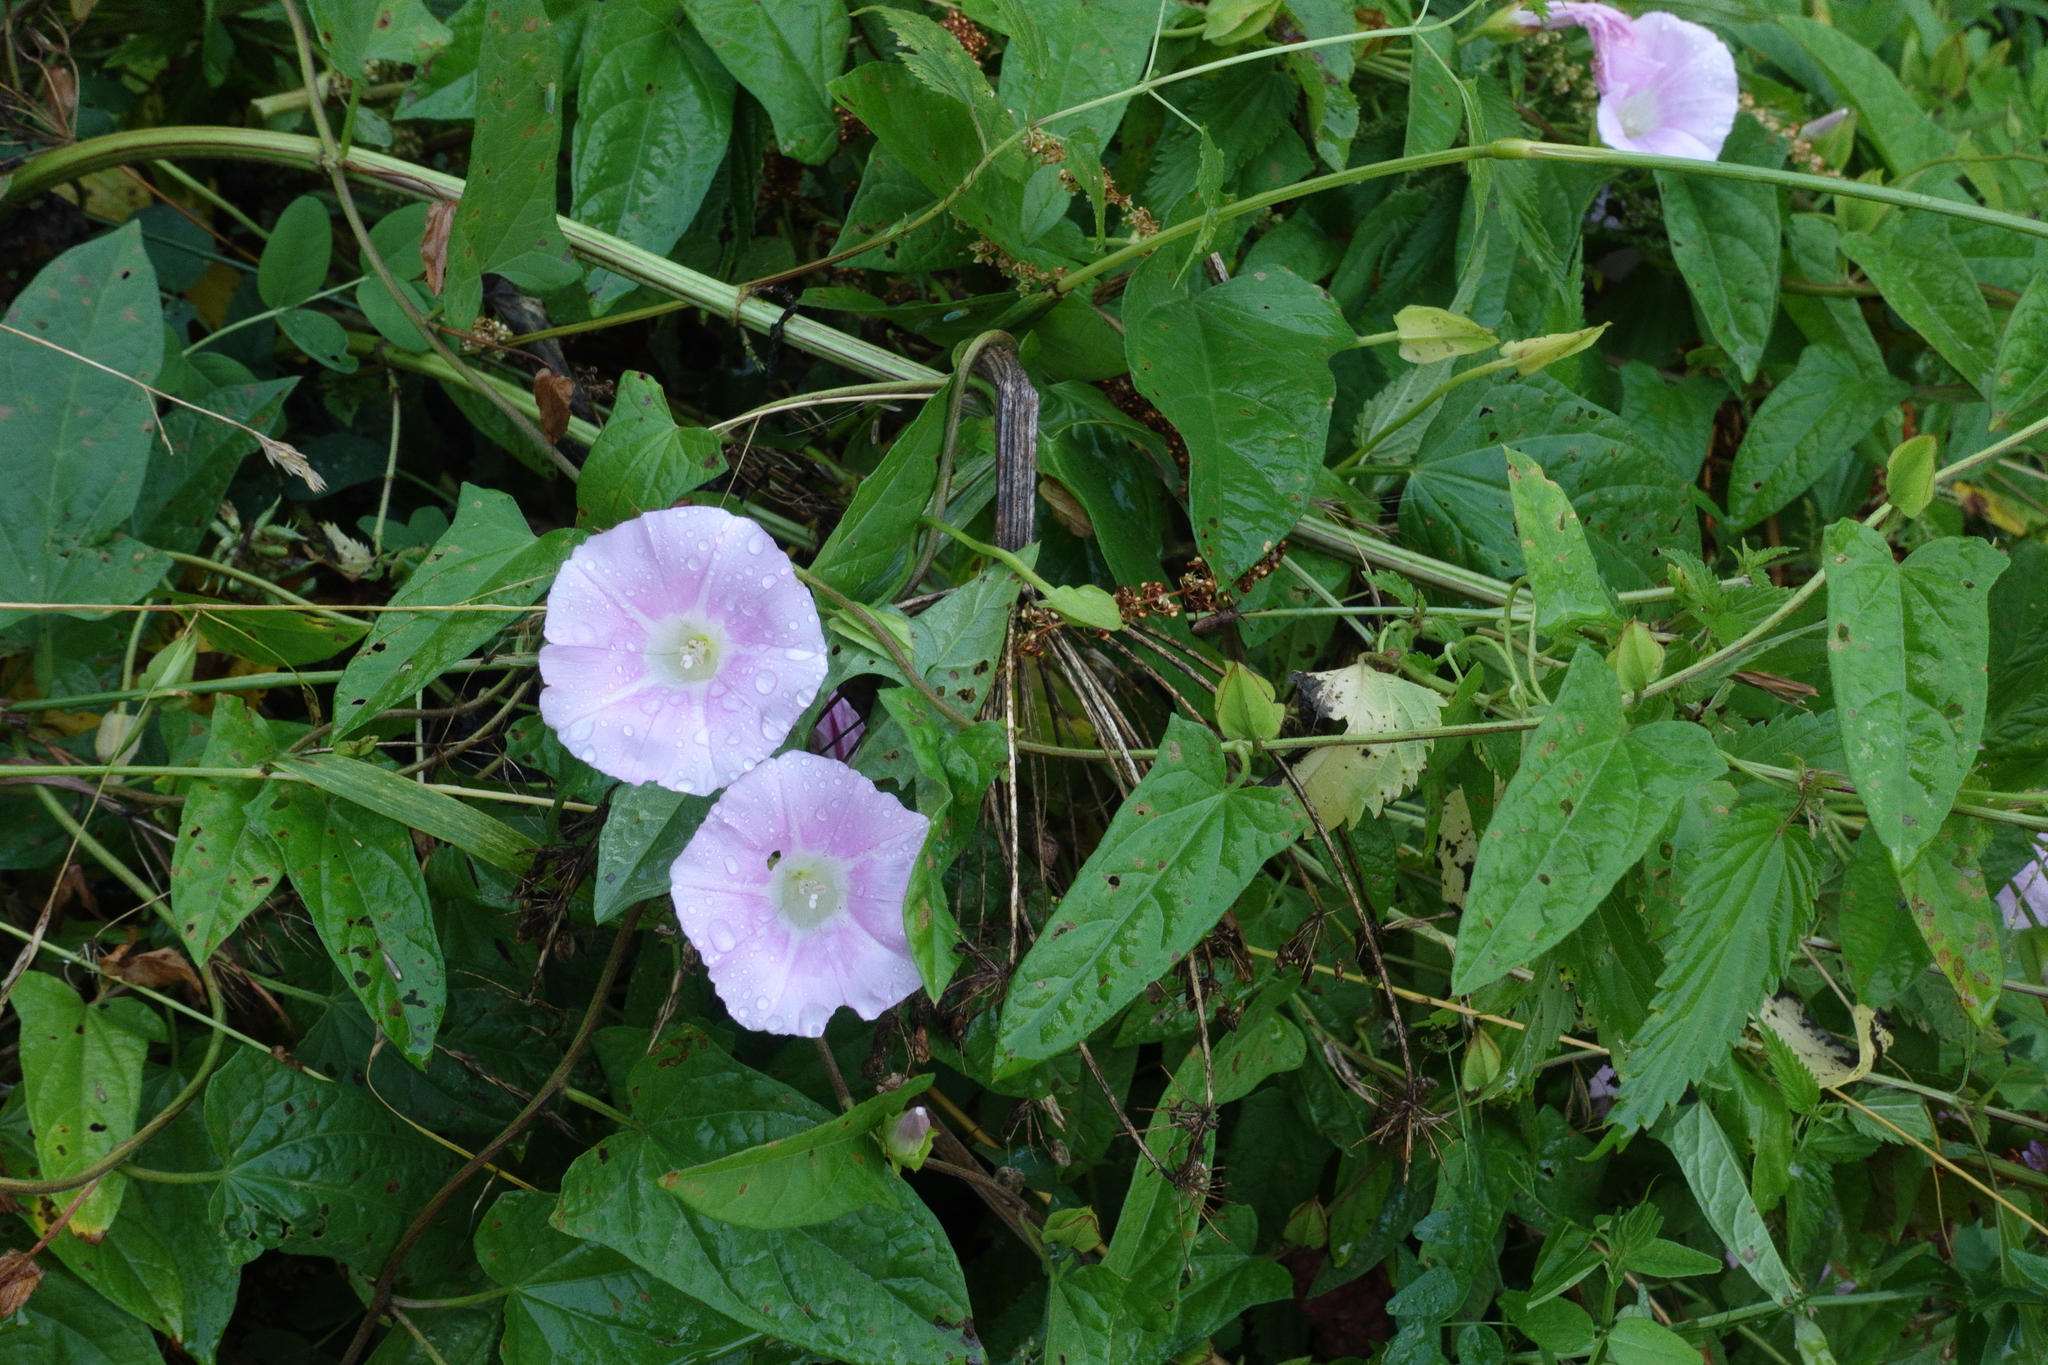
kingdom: Plantae
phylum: Tracheophyta
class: Magnoliopsida
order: Solanales
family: Convolvulaceae
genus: Calystegia
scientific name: Calystegia sepium
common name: Hedge bindweed
